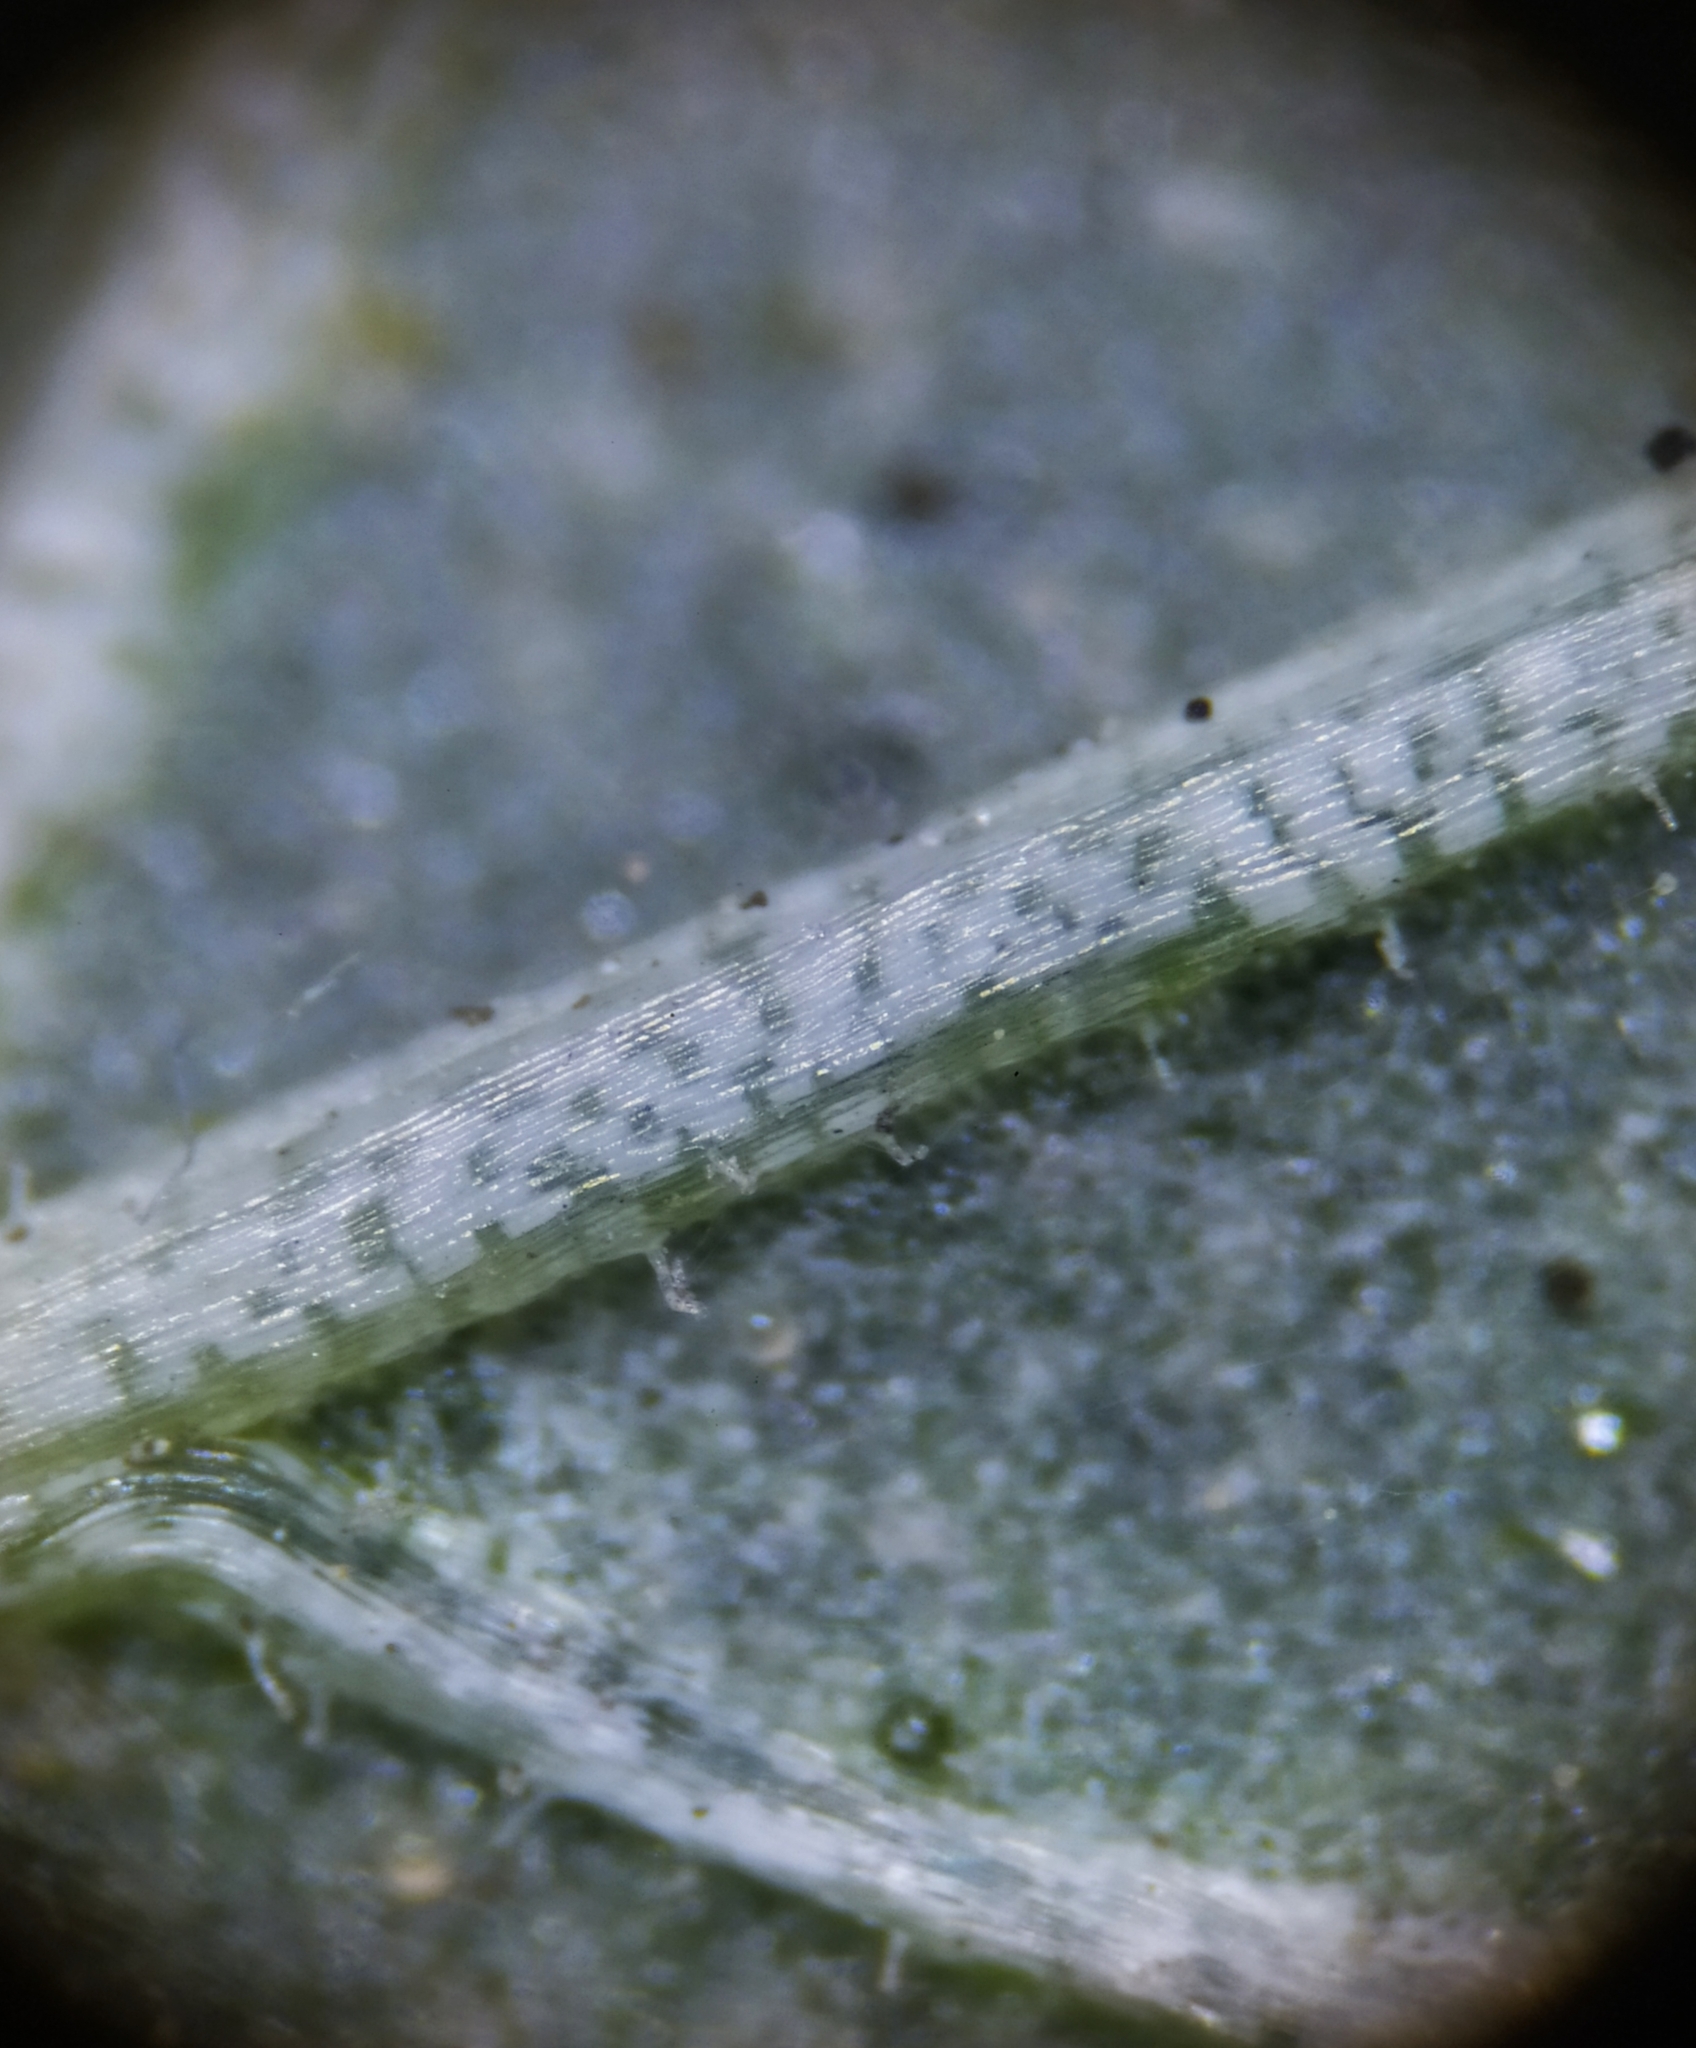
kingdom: Plantae
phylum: Tracheophyta
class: Magnoliopsida
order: Caryophyllales
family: Amaranthaceae
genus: Amaranthus
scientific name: Amaranthus deflexus
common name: Perennial pigweed
